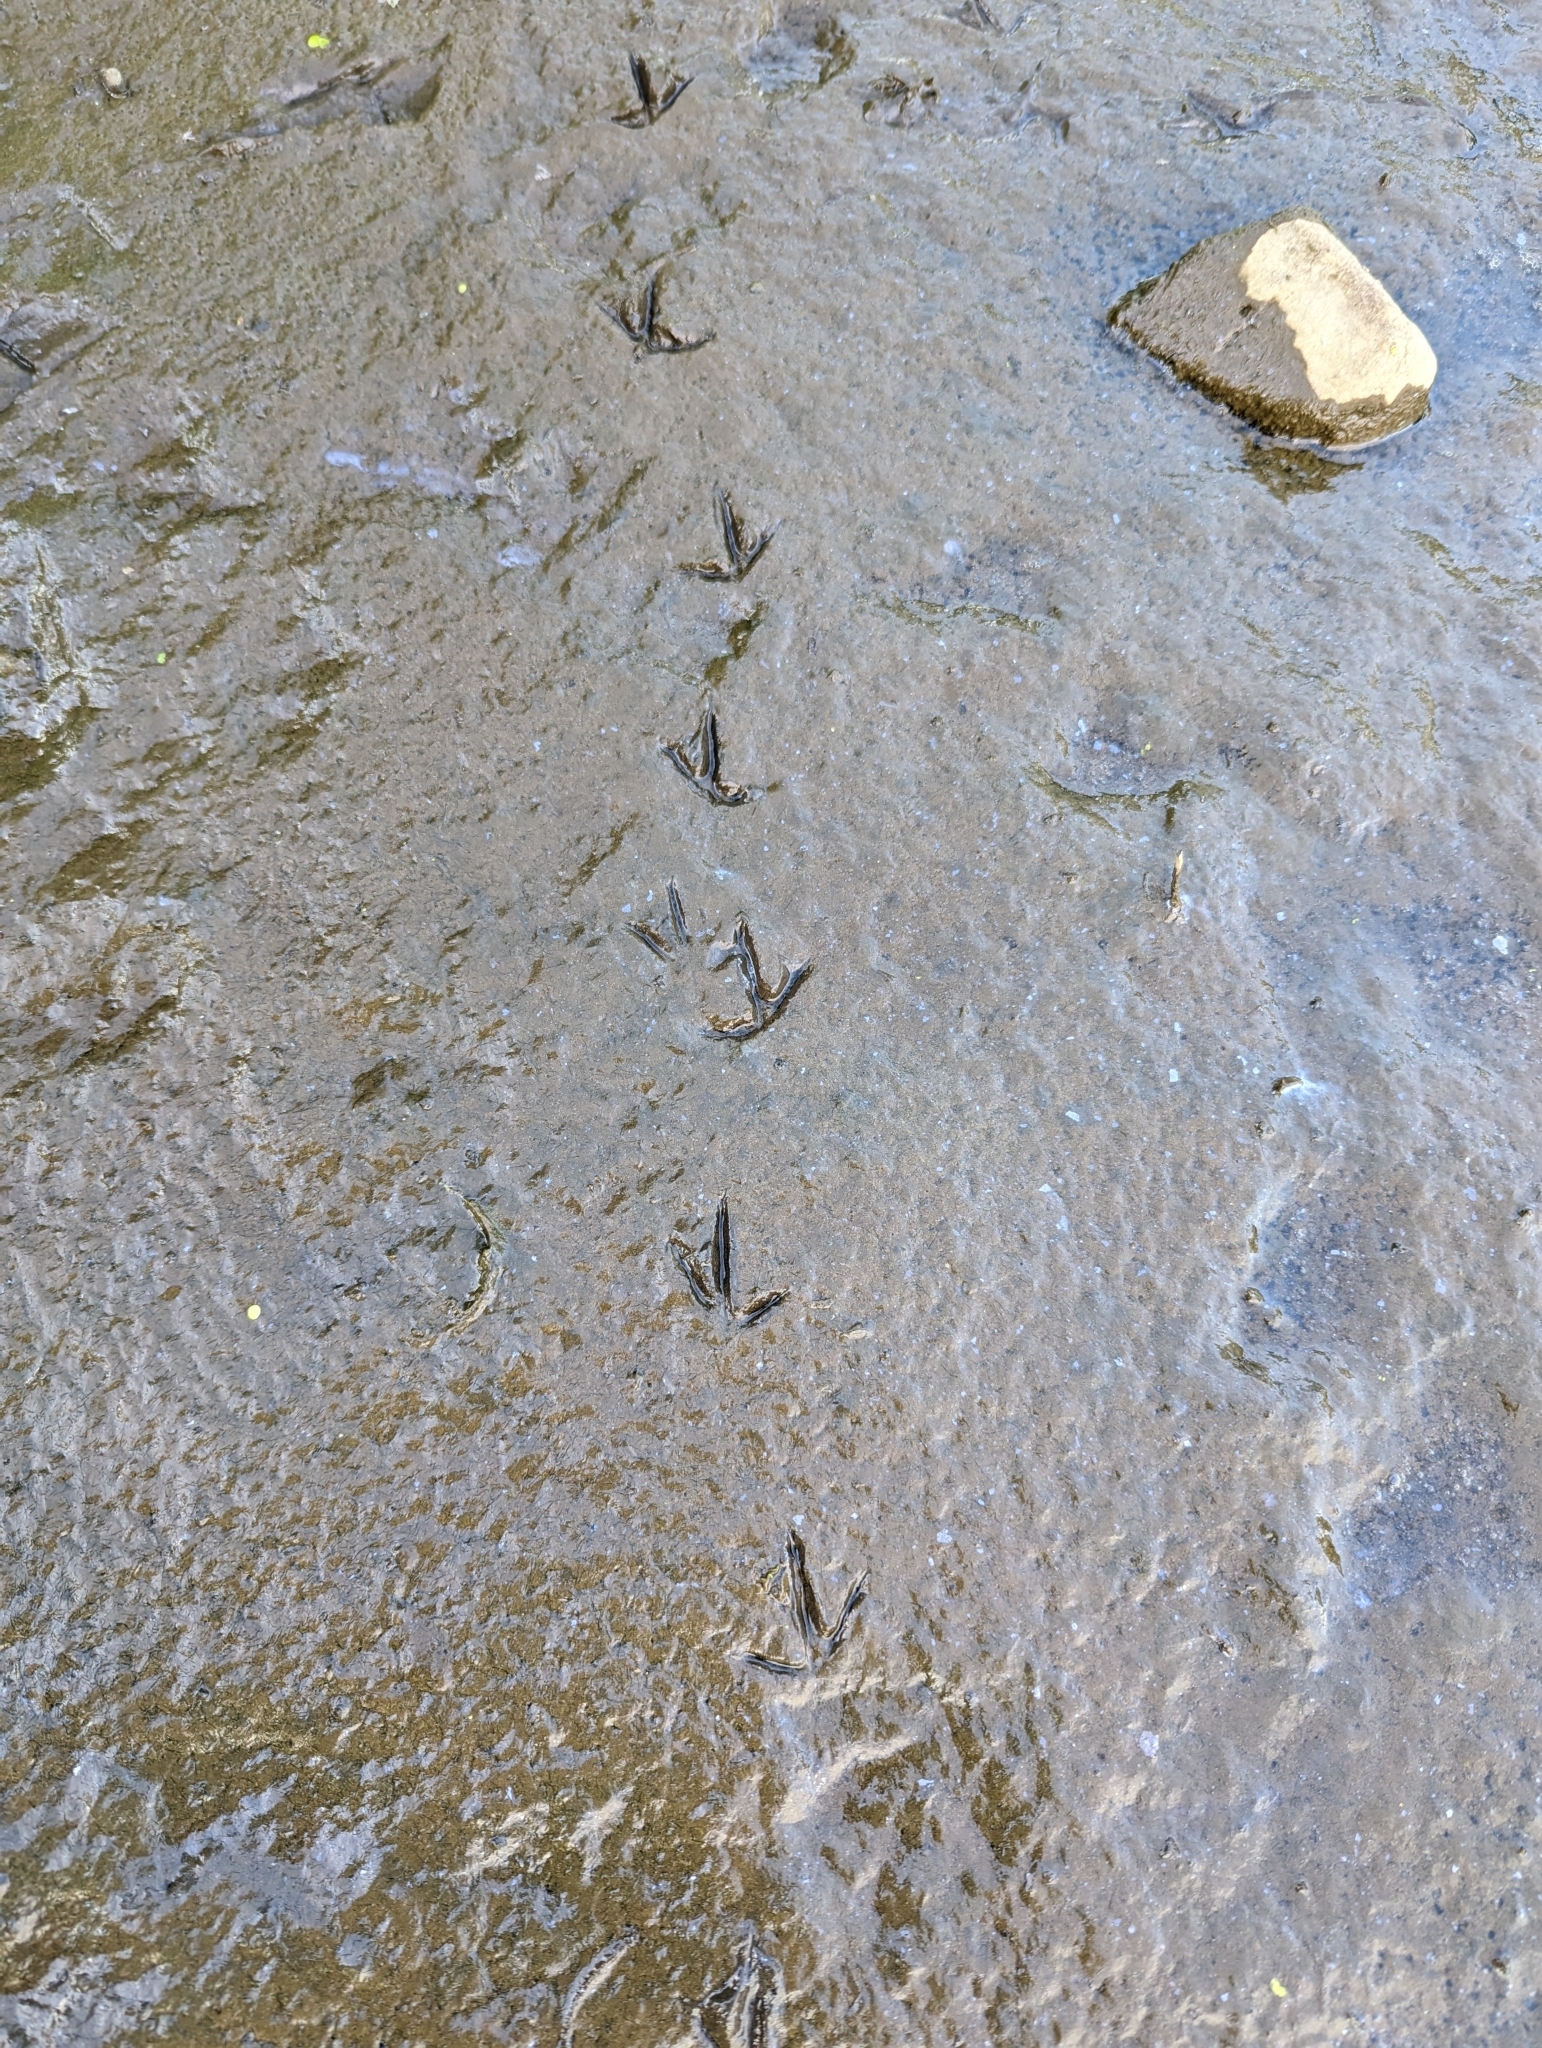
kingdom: Animalia
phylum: Chordata
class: Aves
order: Charadriiformes
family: Charadriidae
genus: Charadrius
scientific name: Charadrius vociferus
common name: Killdeer
